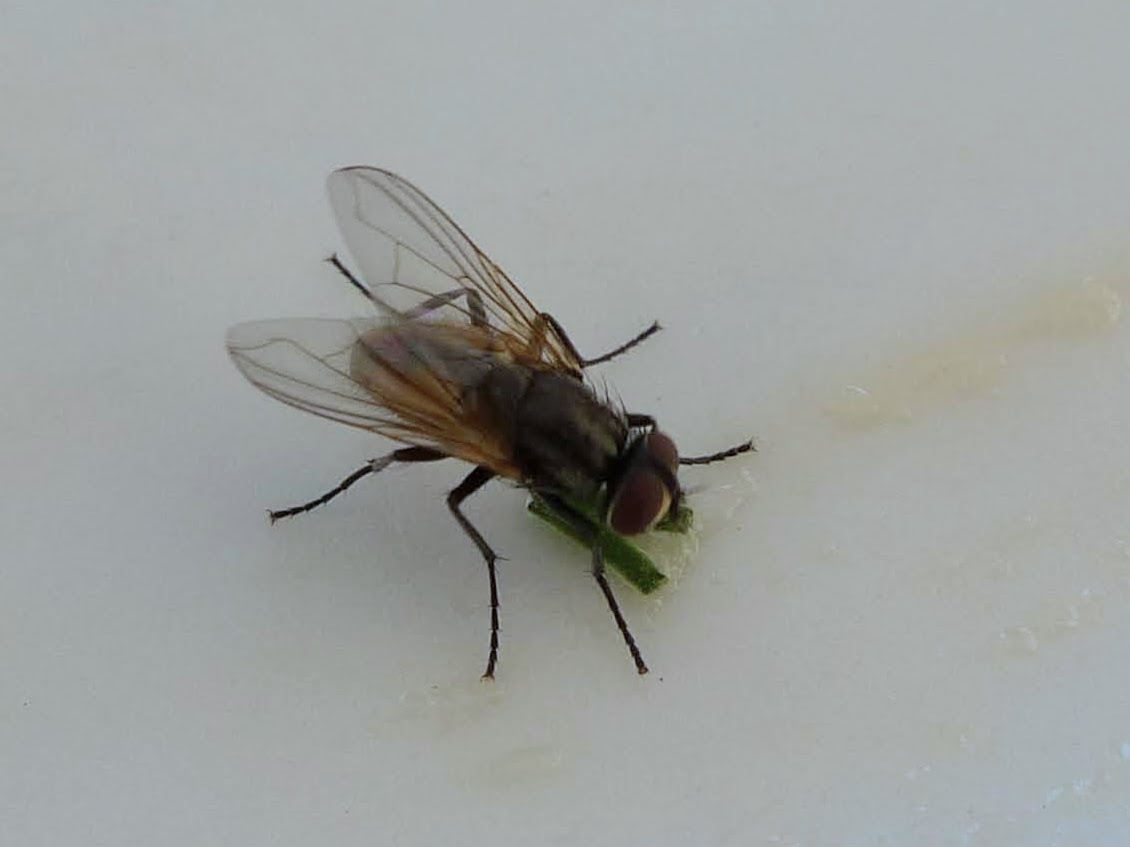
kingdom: Animalia
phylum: Arthropoda
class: Insecta
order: Diptera
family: Muscidae
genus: Musca
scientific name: Musca domestica
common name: House fly
